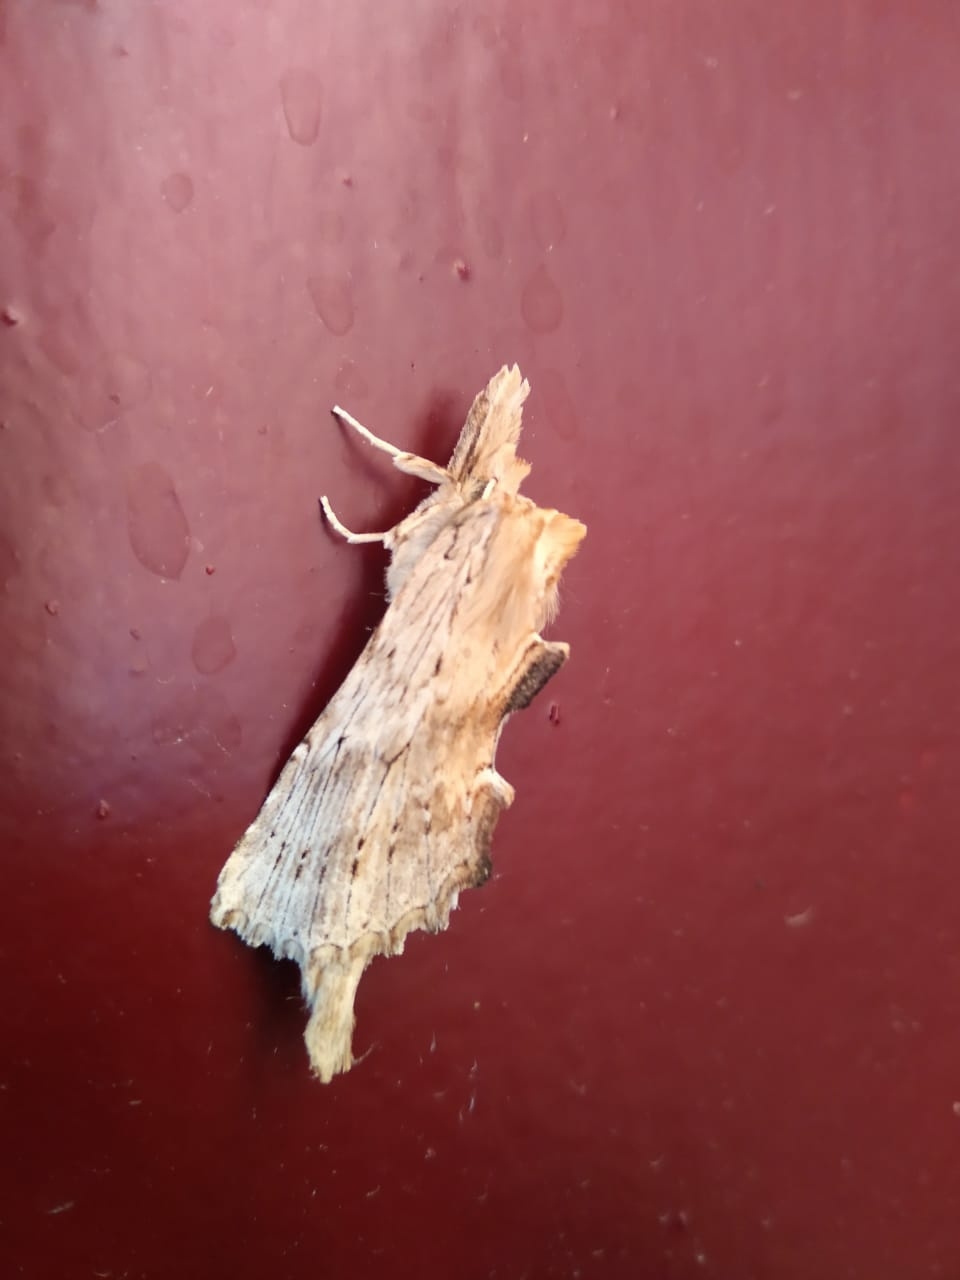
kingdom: Animalia
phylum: Arthropoda
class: Insecta
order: Lepidoptera
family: Notodontidae
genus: Pterostoma
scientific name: Pterostoma palpina
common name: Pale prominent
